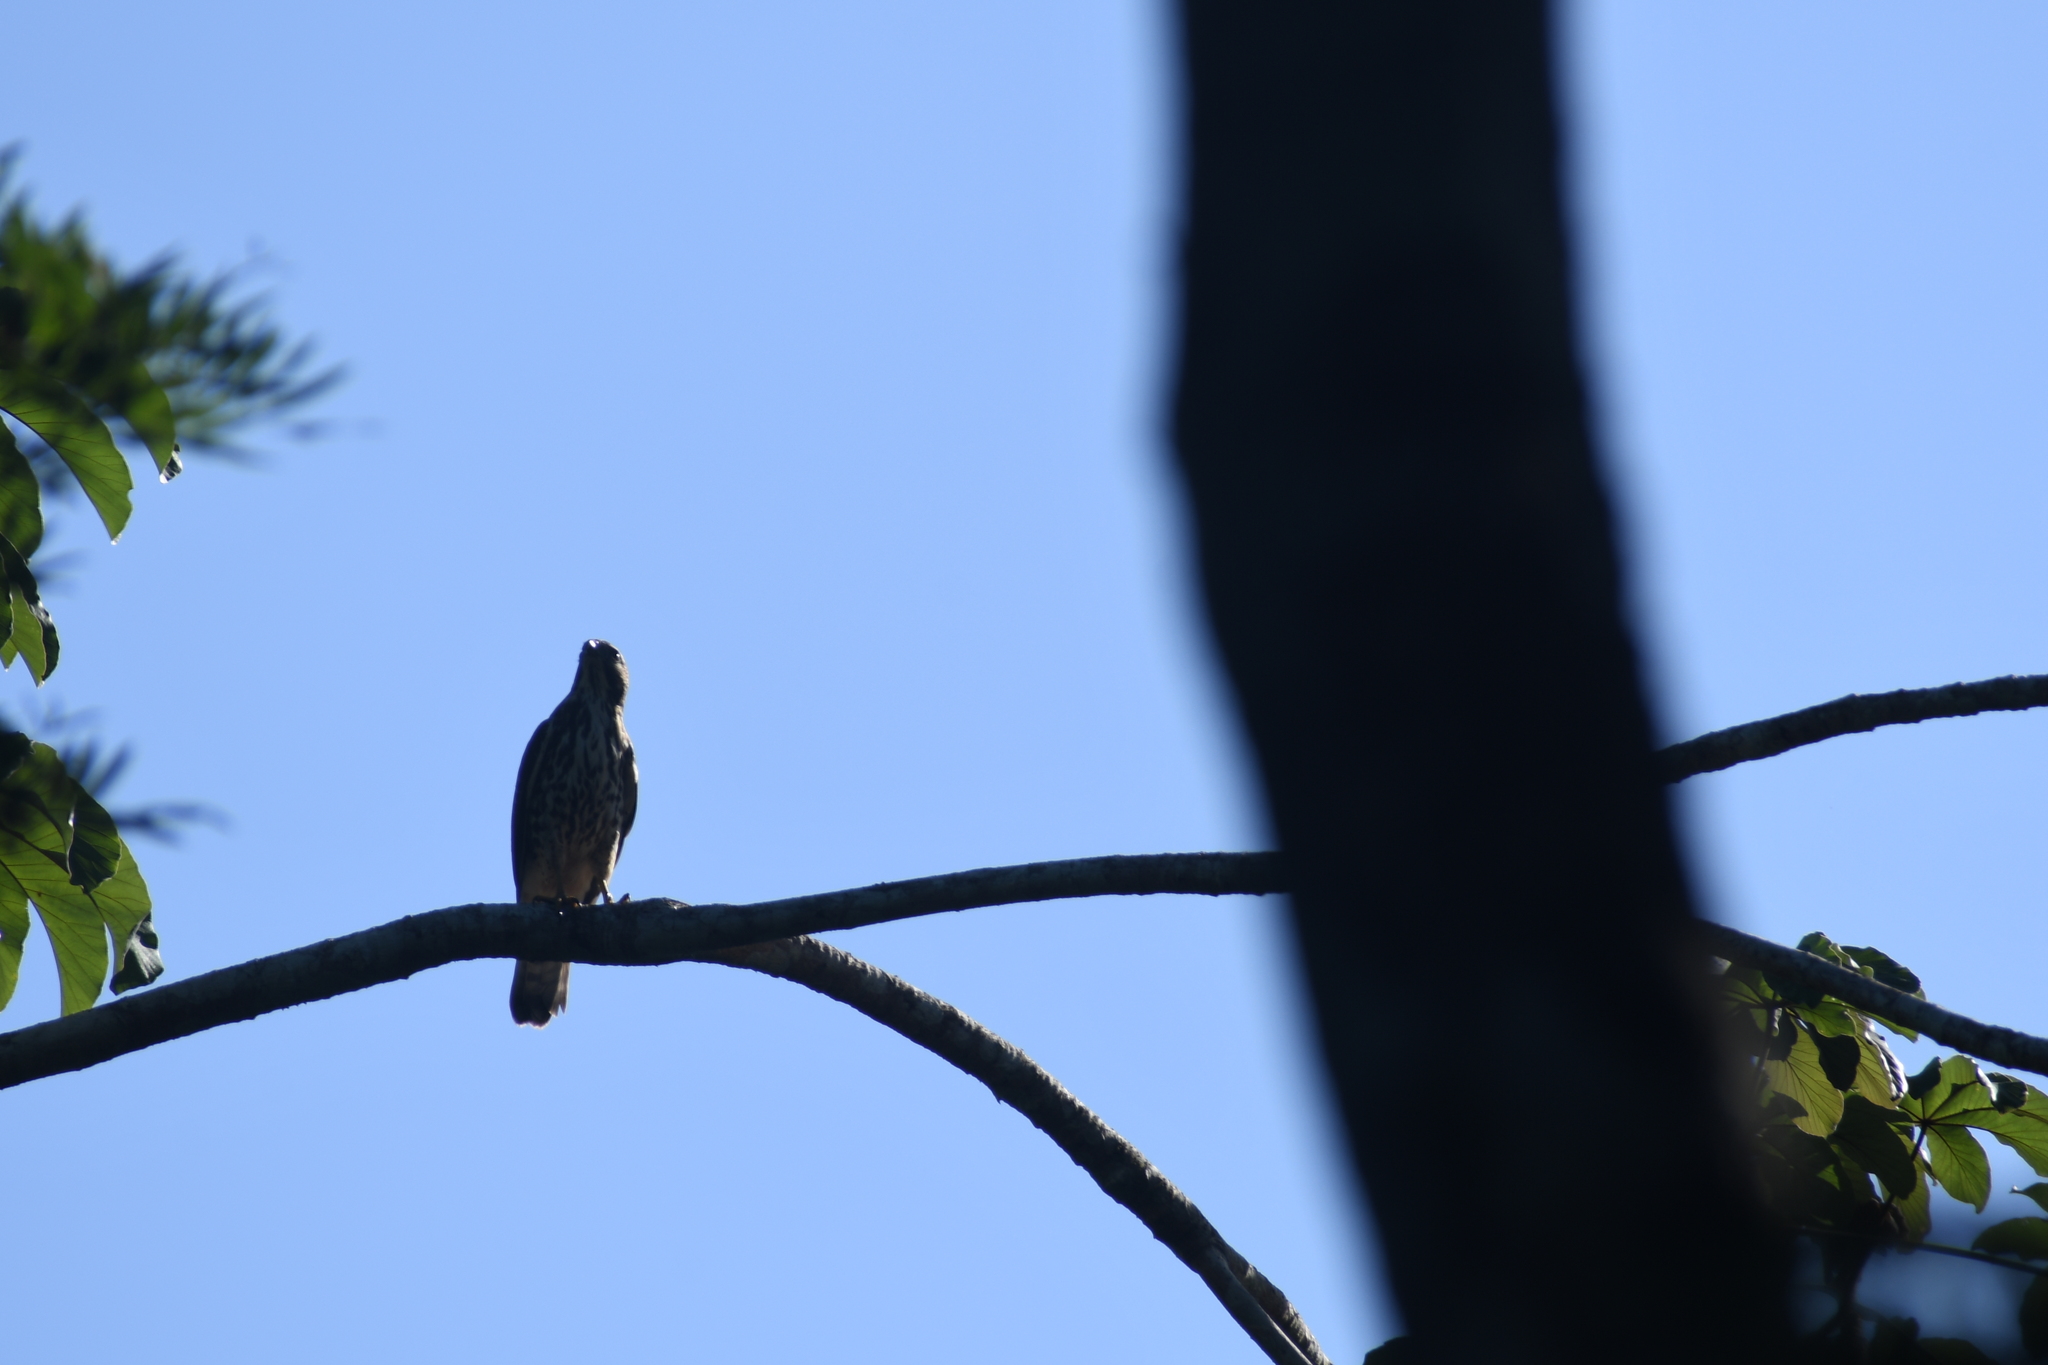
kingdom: Animalia
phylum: Chordata
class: Aves
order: Accipitriformes
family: Accipitridae
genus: Rupornis
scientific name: Rupornis magnirostris
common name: Roadside hawk
